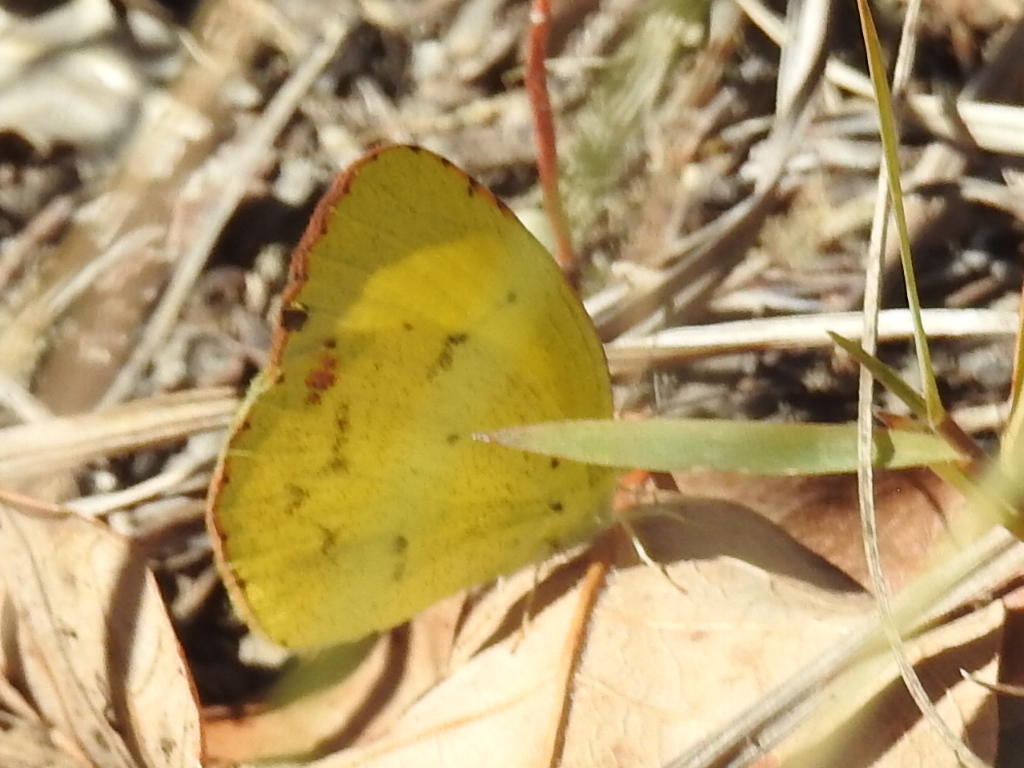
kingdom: Animalia
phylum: Arthropoda
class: Insecta
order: Lepidoptera
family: Pieridae
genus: Pyrisitia
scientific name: Pyrisitia lisa
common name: Little yellow
